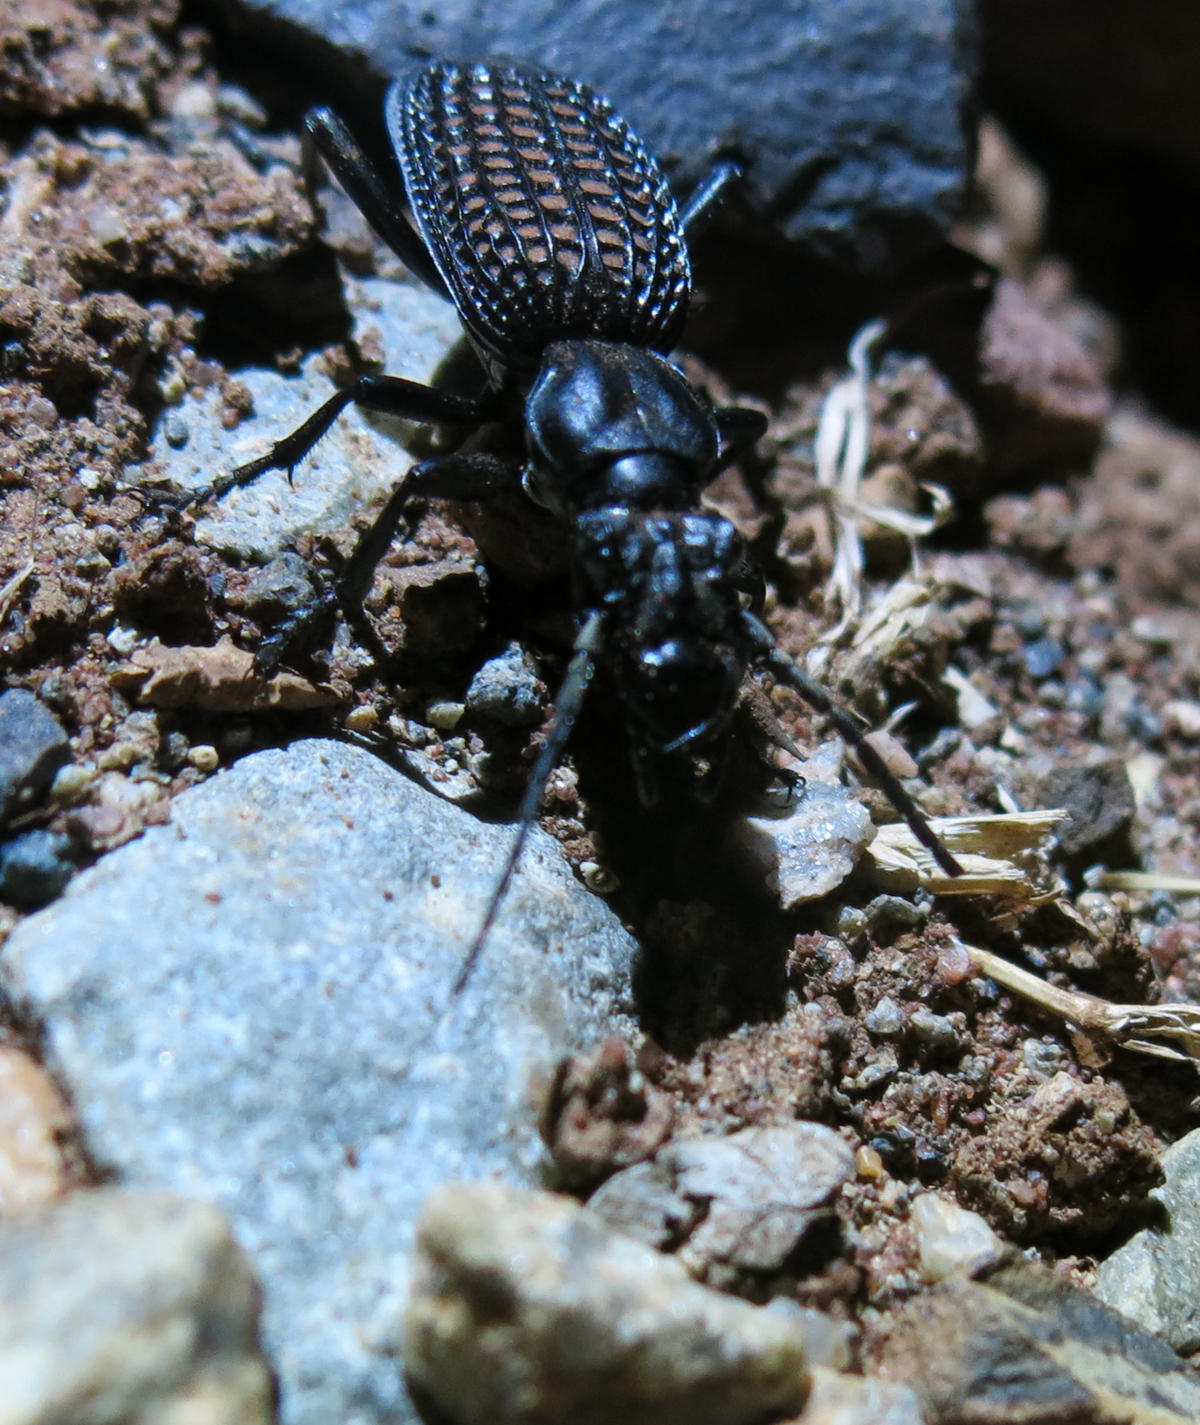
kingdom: Animalia
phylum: Arthropoda
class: Insecta
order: Coleoptera
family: Carabidae
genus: Cypholoba
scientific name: Cypholoba alveolata
